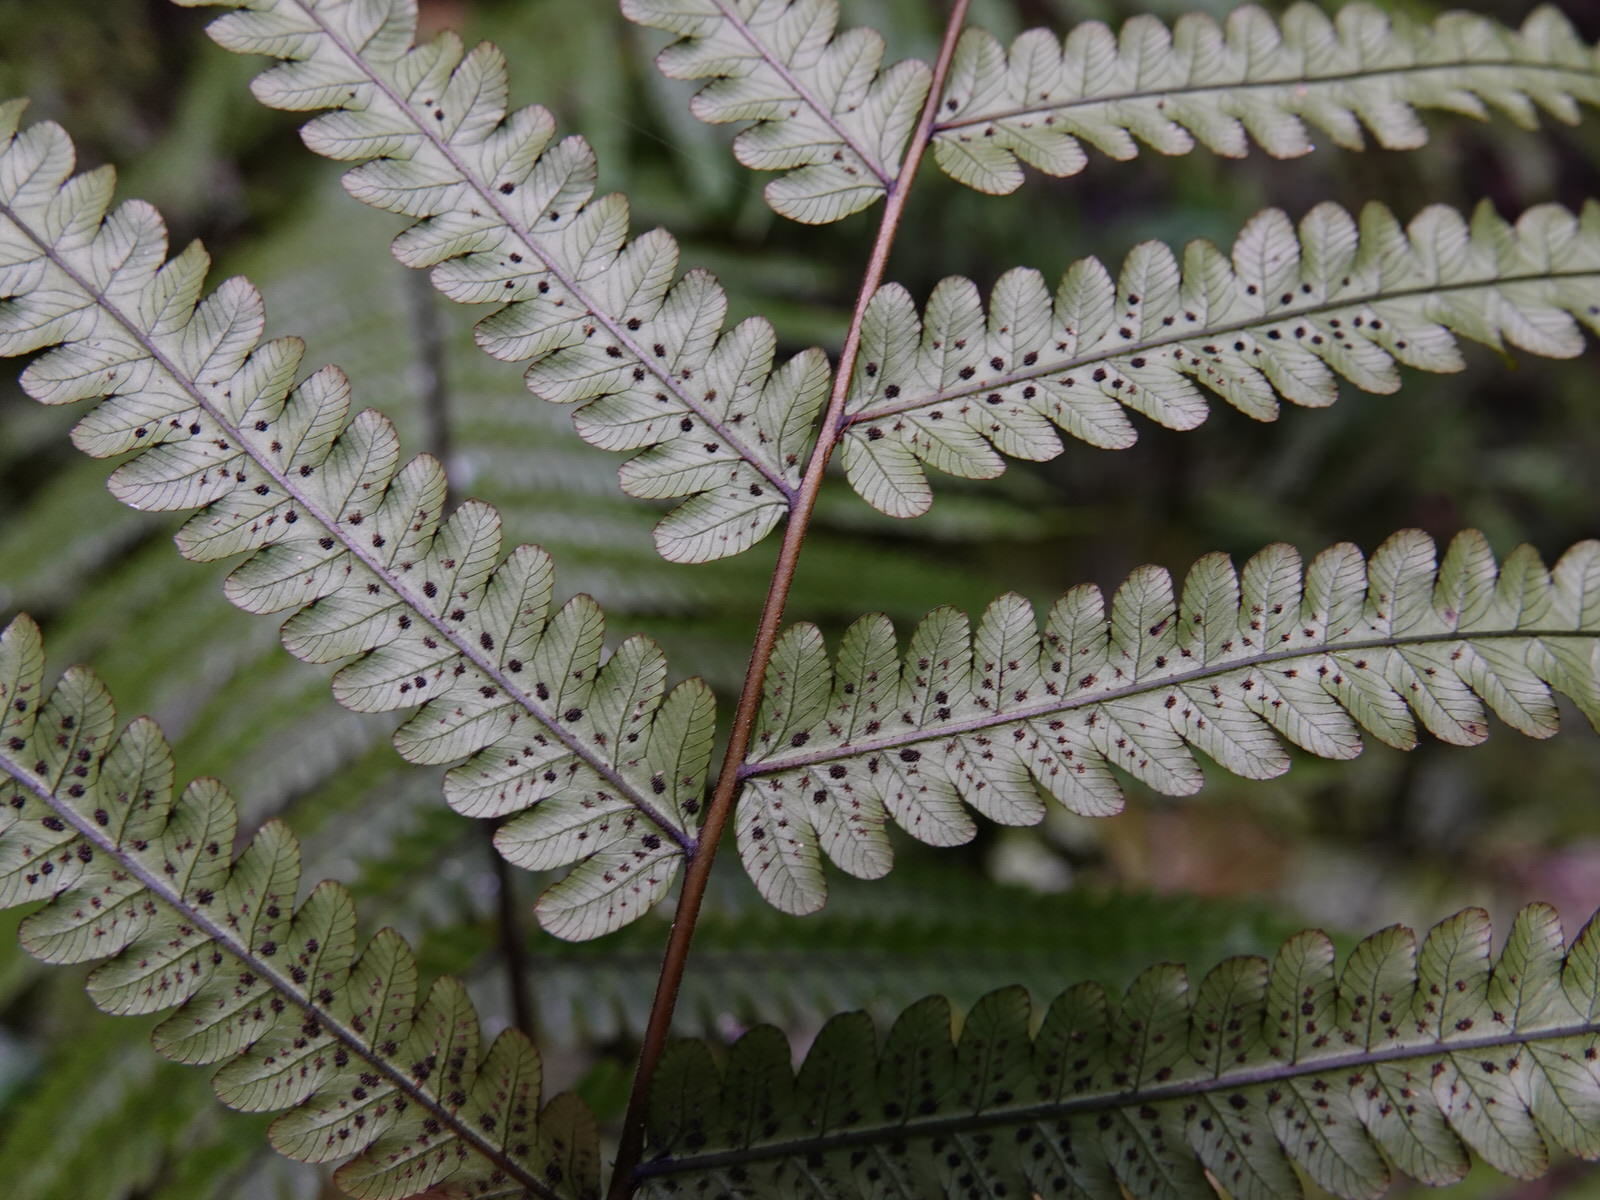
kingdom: Plantae
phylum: Tracheophyta
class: Polypodiopsida
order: Polypodiales
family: Thelypteridaceae
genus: Pakau
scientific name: Pakau pennigera
